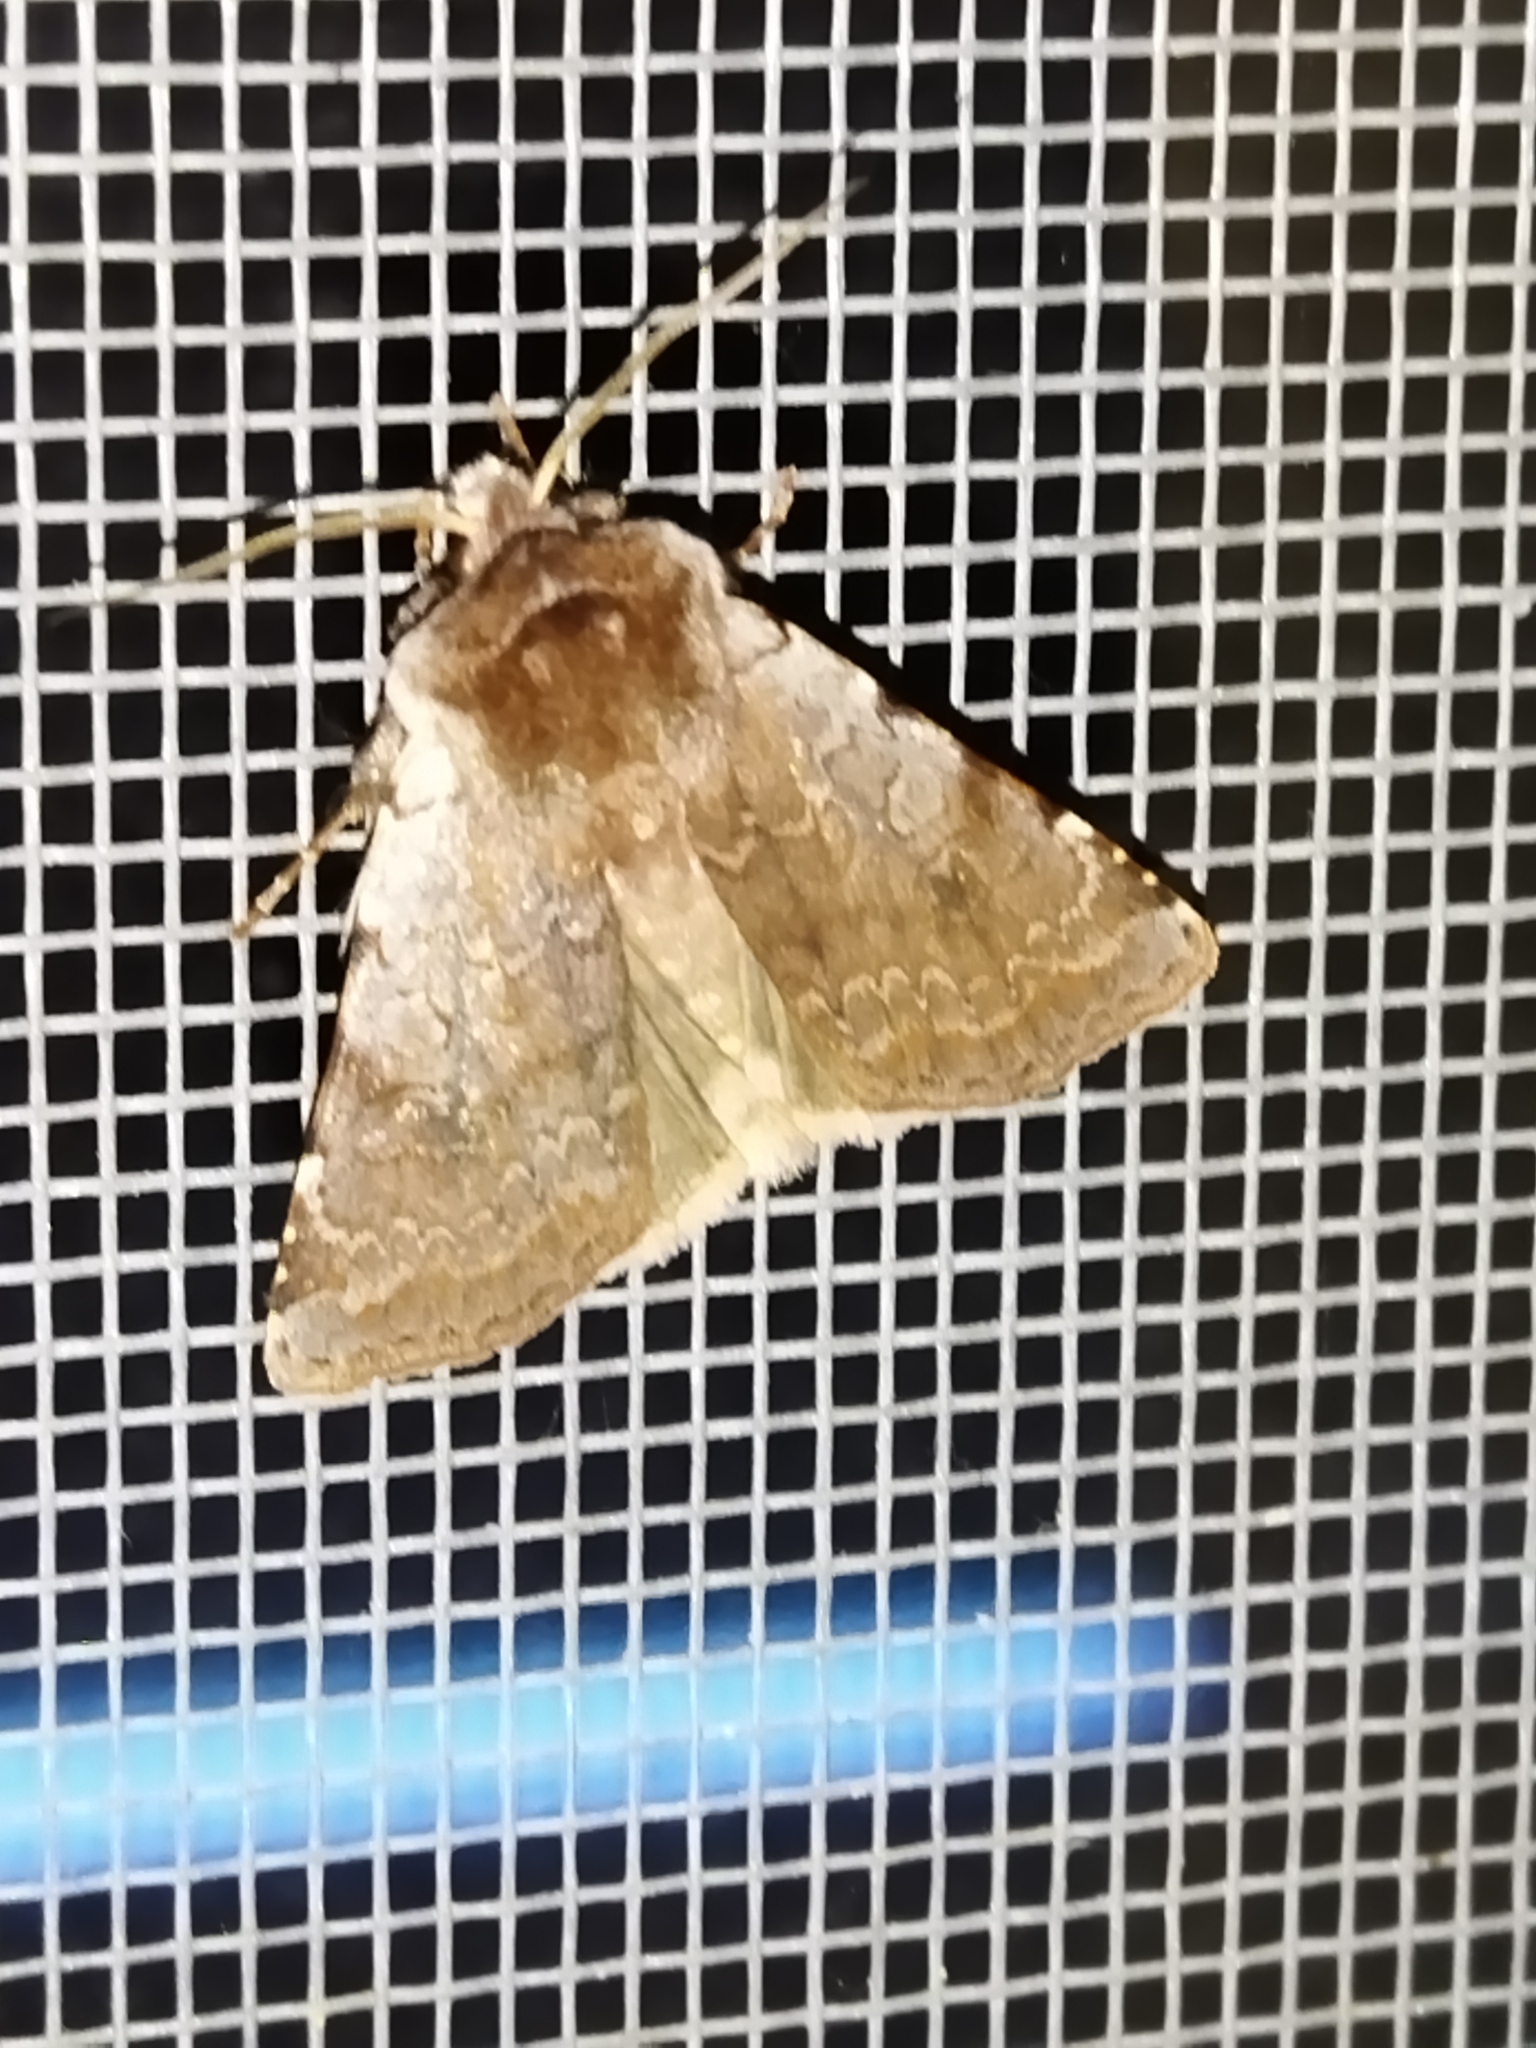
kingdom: Animalia
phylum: Arthropoda
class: Insecta
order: Lepidoptera
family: Noctuidae
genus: Cerastis
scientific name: Cerastis rubricosa
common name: Red chestnut
